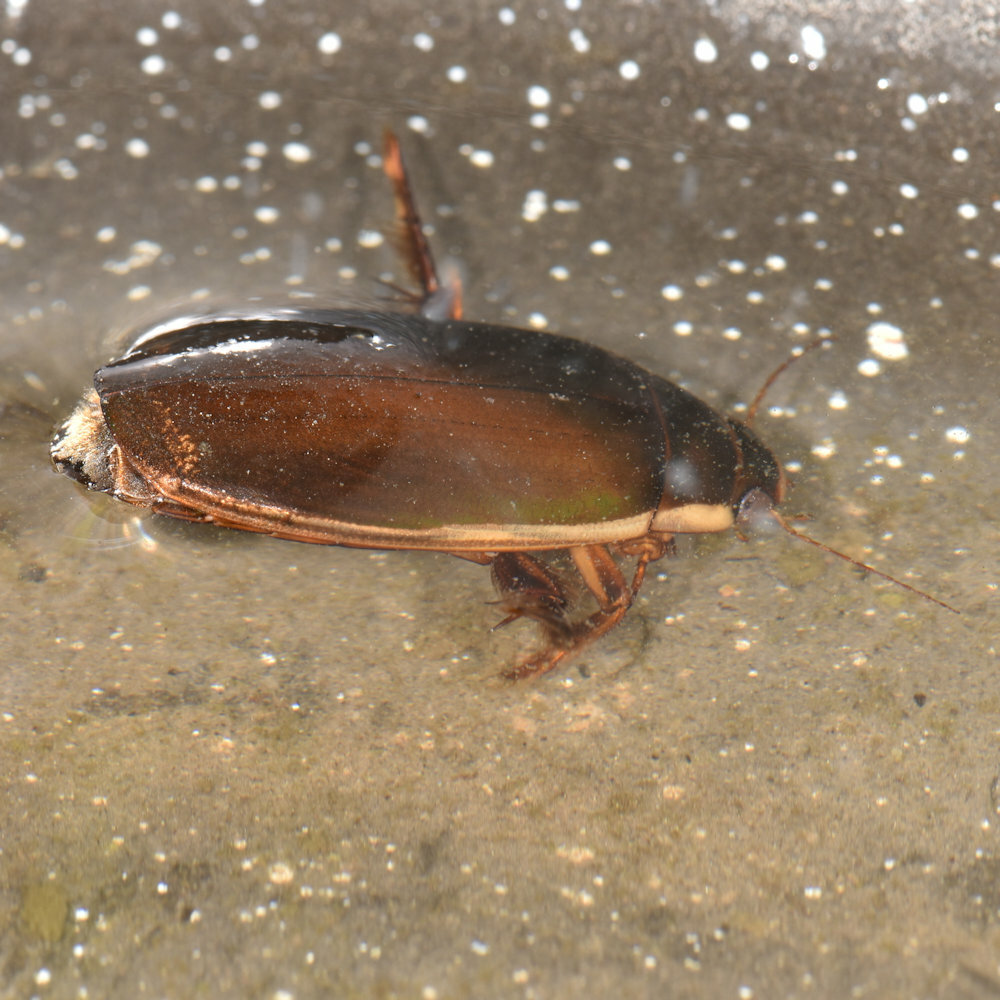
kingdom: Animalia
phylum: Arthropoda
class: Insecta
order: Coleoptera
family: Dytiscidae
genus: Dytiscus
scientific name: Dytiscus fasciventris
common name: Understriped diving beetle
